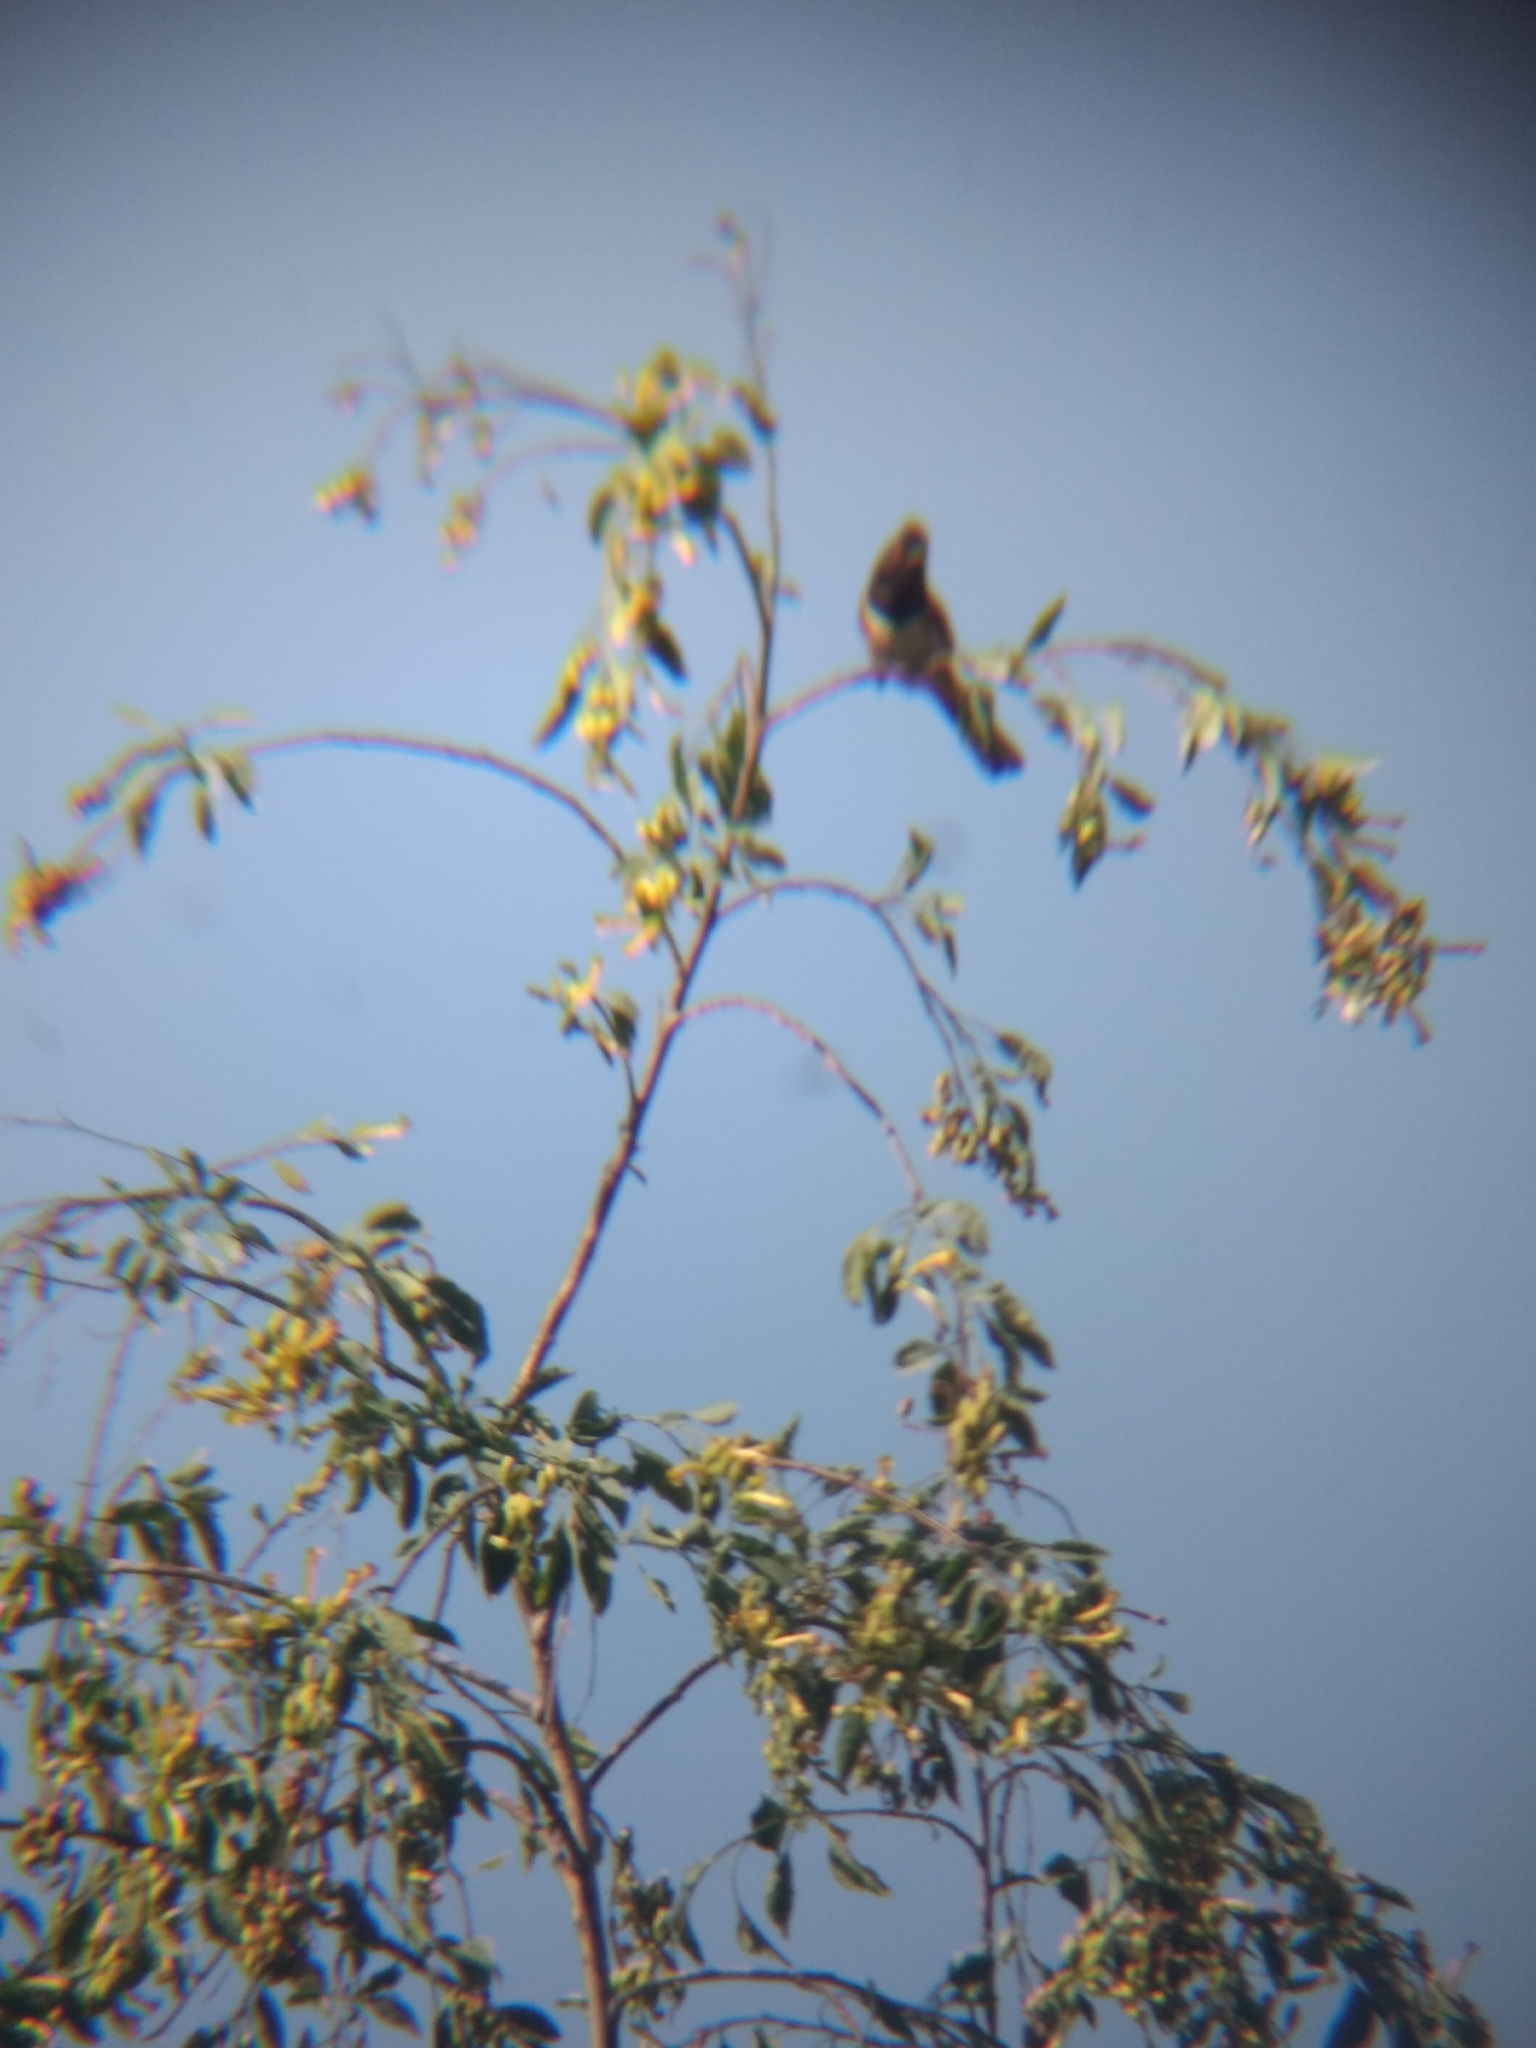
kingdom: Animalia
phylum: Chordata
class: Aves
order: Passeriformes
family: Passerellidae
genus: Pipilo
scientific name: Pipilo maculatus
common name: Spotted towhee
